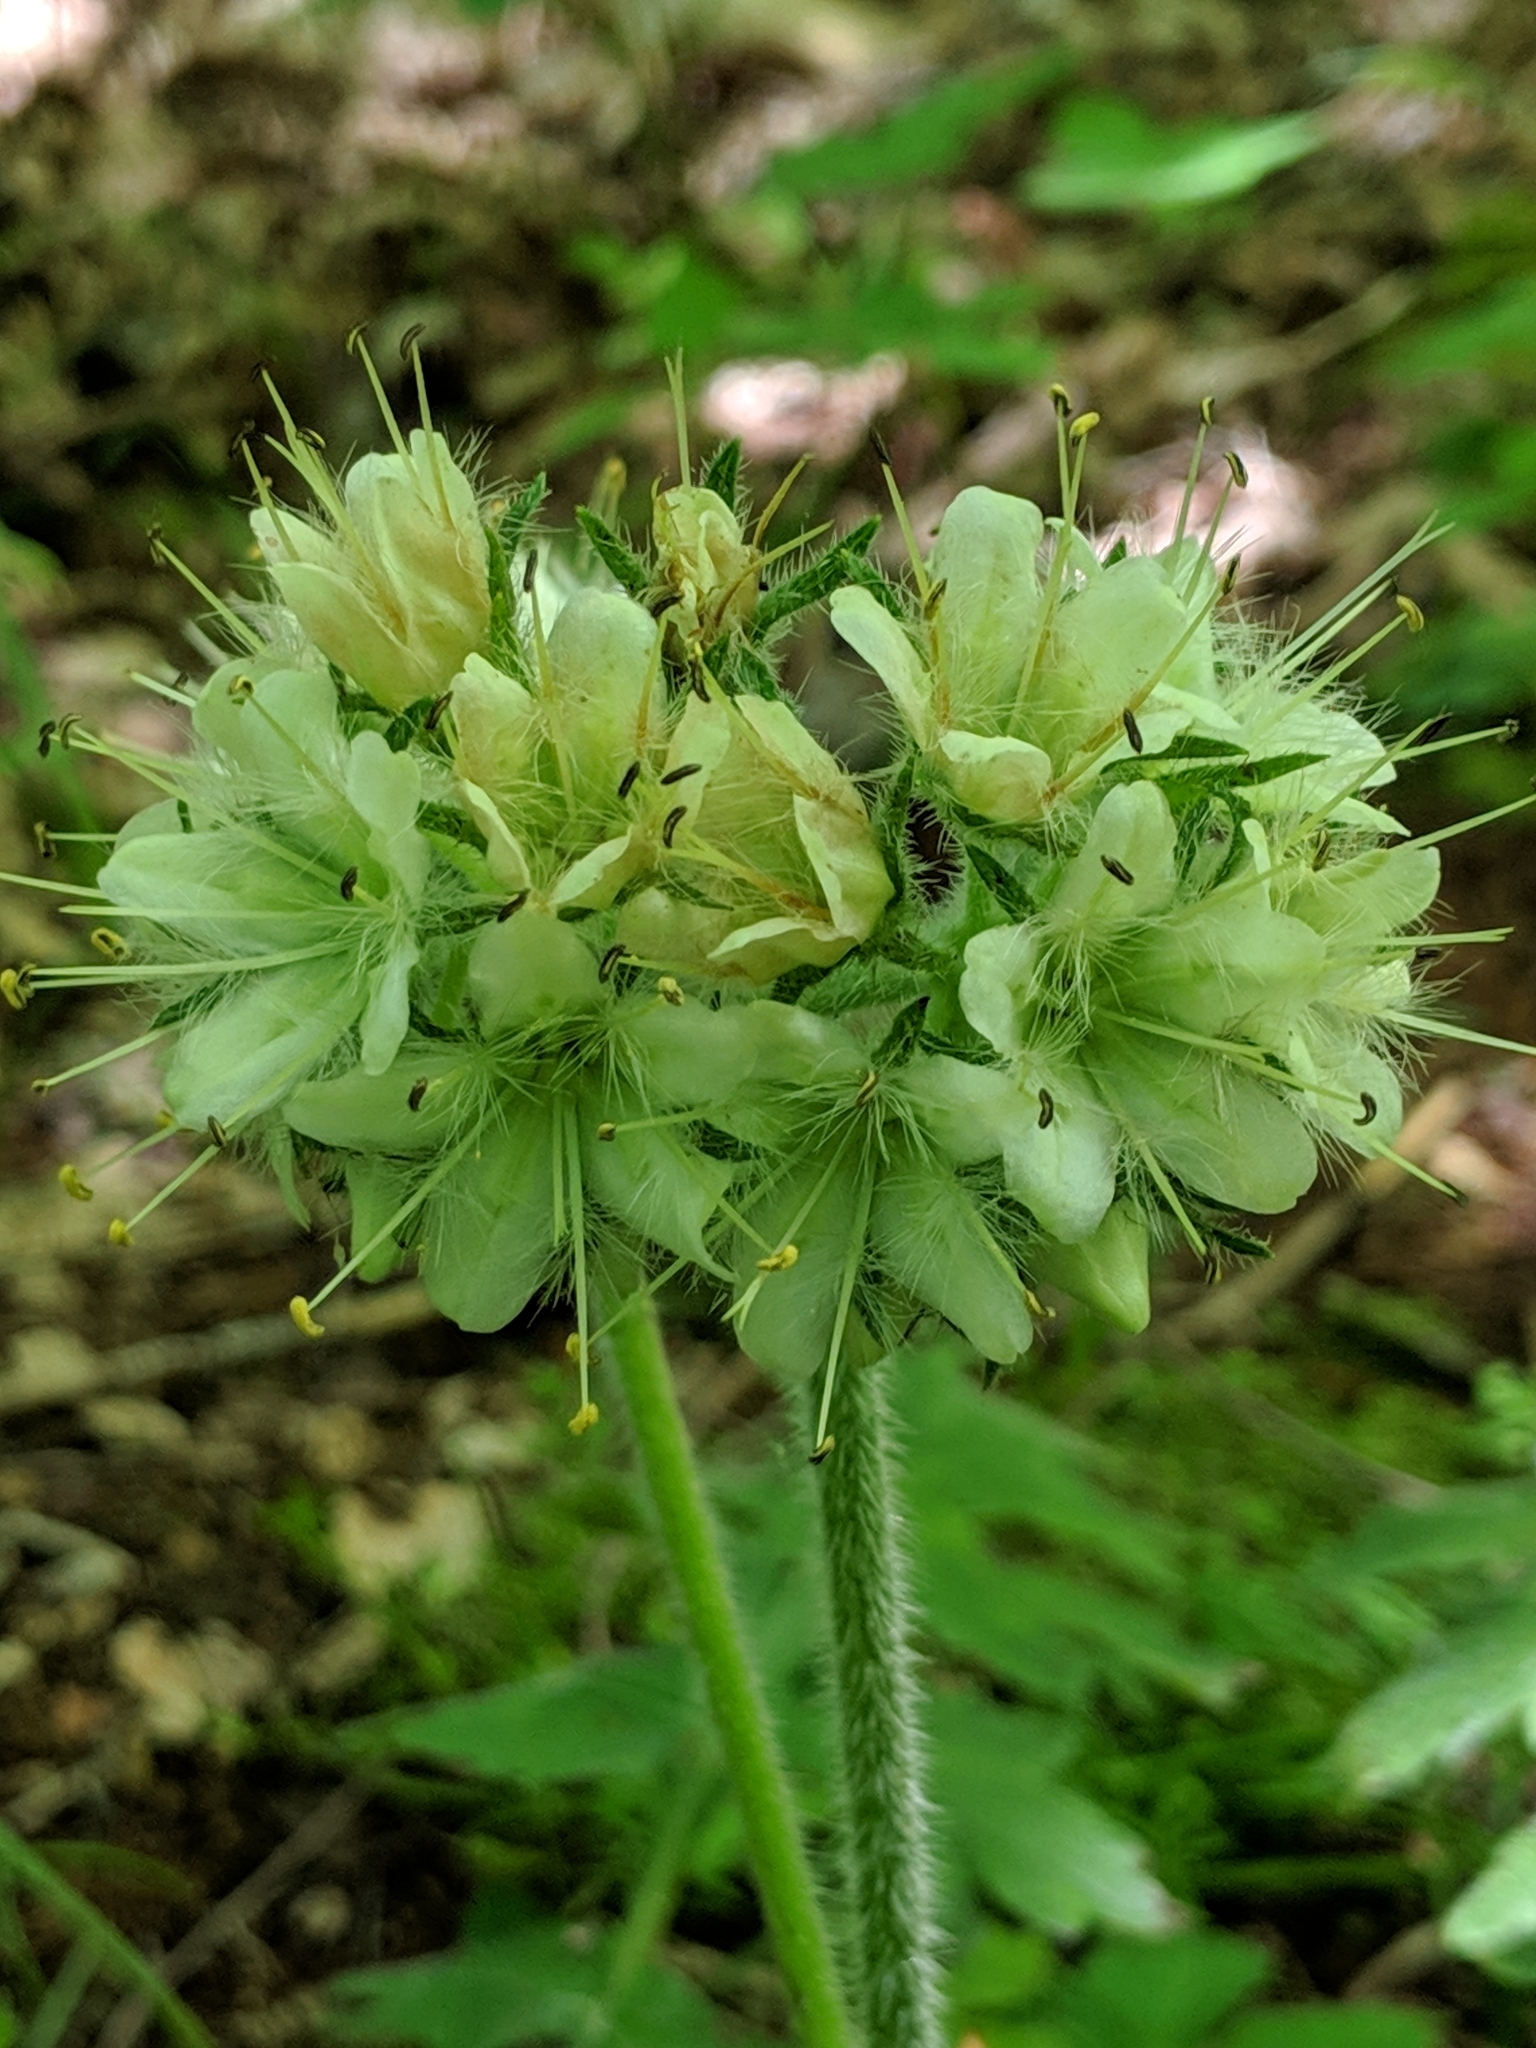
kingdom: Plantae
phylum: Tracheophyta
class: Magnoliopsida
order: Boraginales
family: Hydrophyllaceae
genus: Hydrophyllum
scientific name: Hydrophyllum macrophyllum
